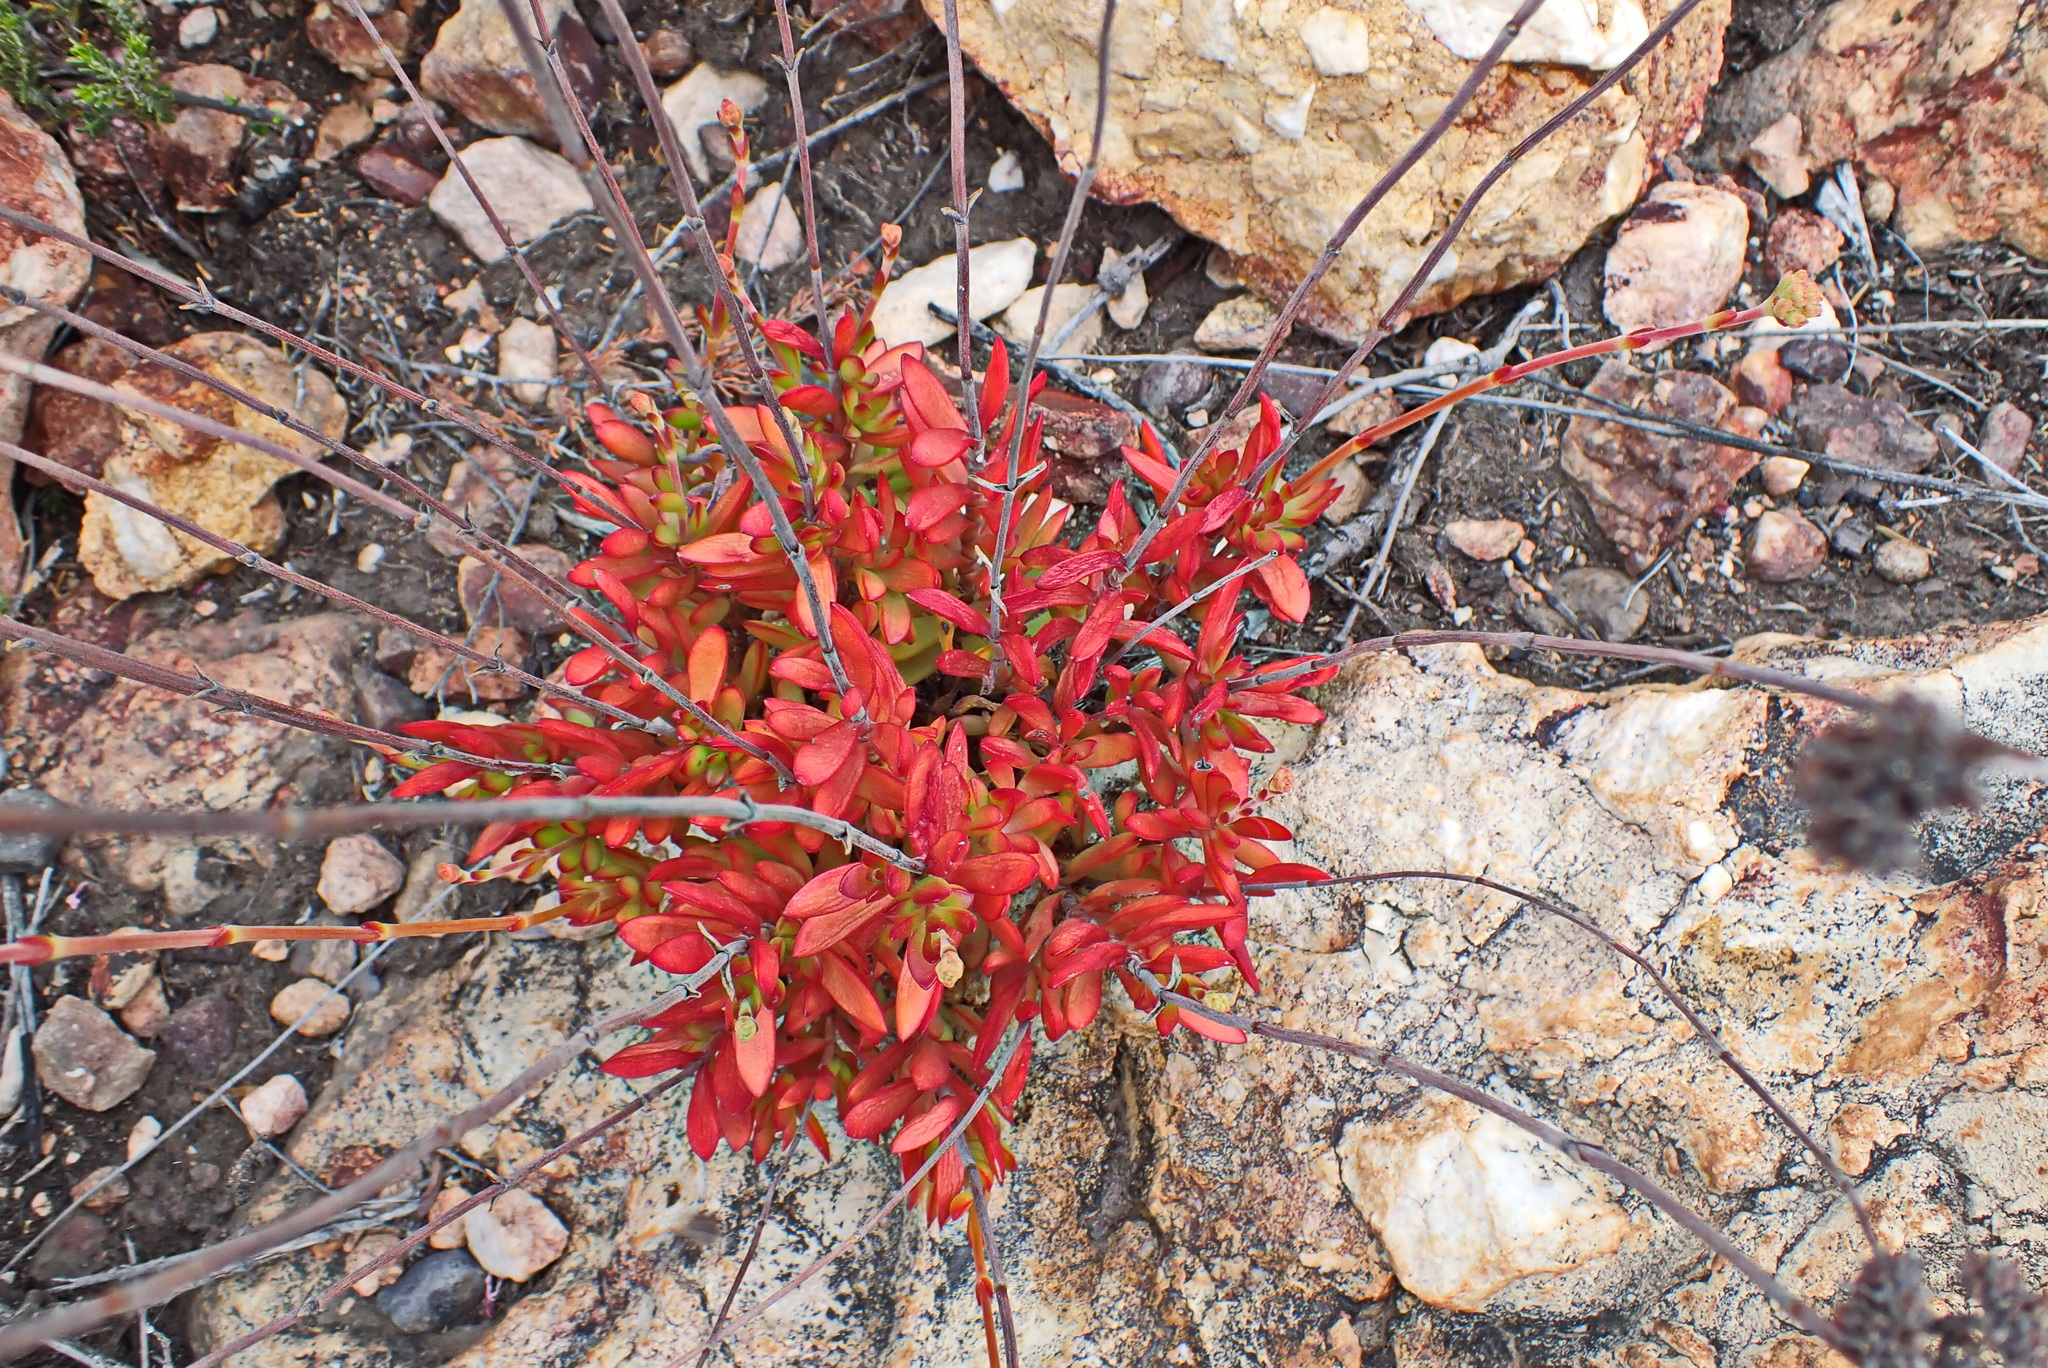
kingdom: Plantae
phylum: Tracheophyta
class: Magnoliopsida
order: Saxifragales
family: Crassulaceae
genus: Crassula
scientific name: Crassula atropurpurea
